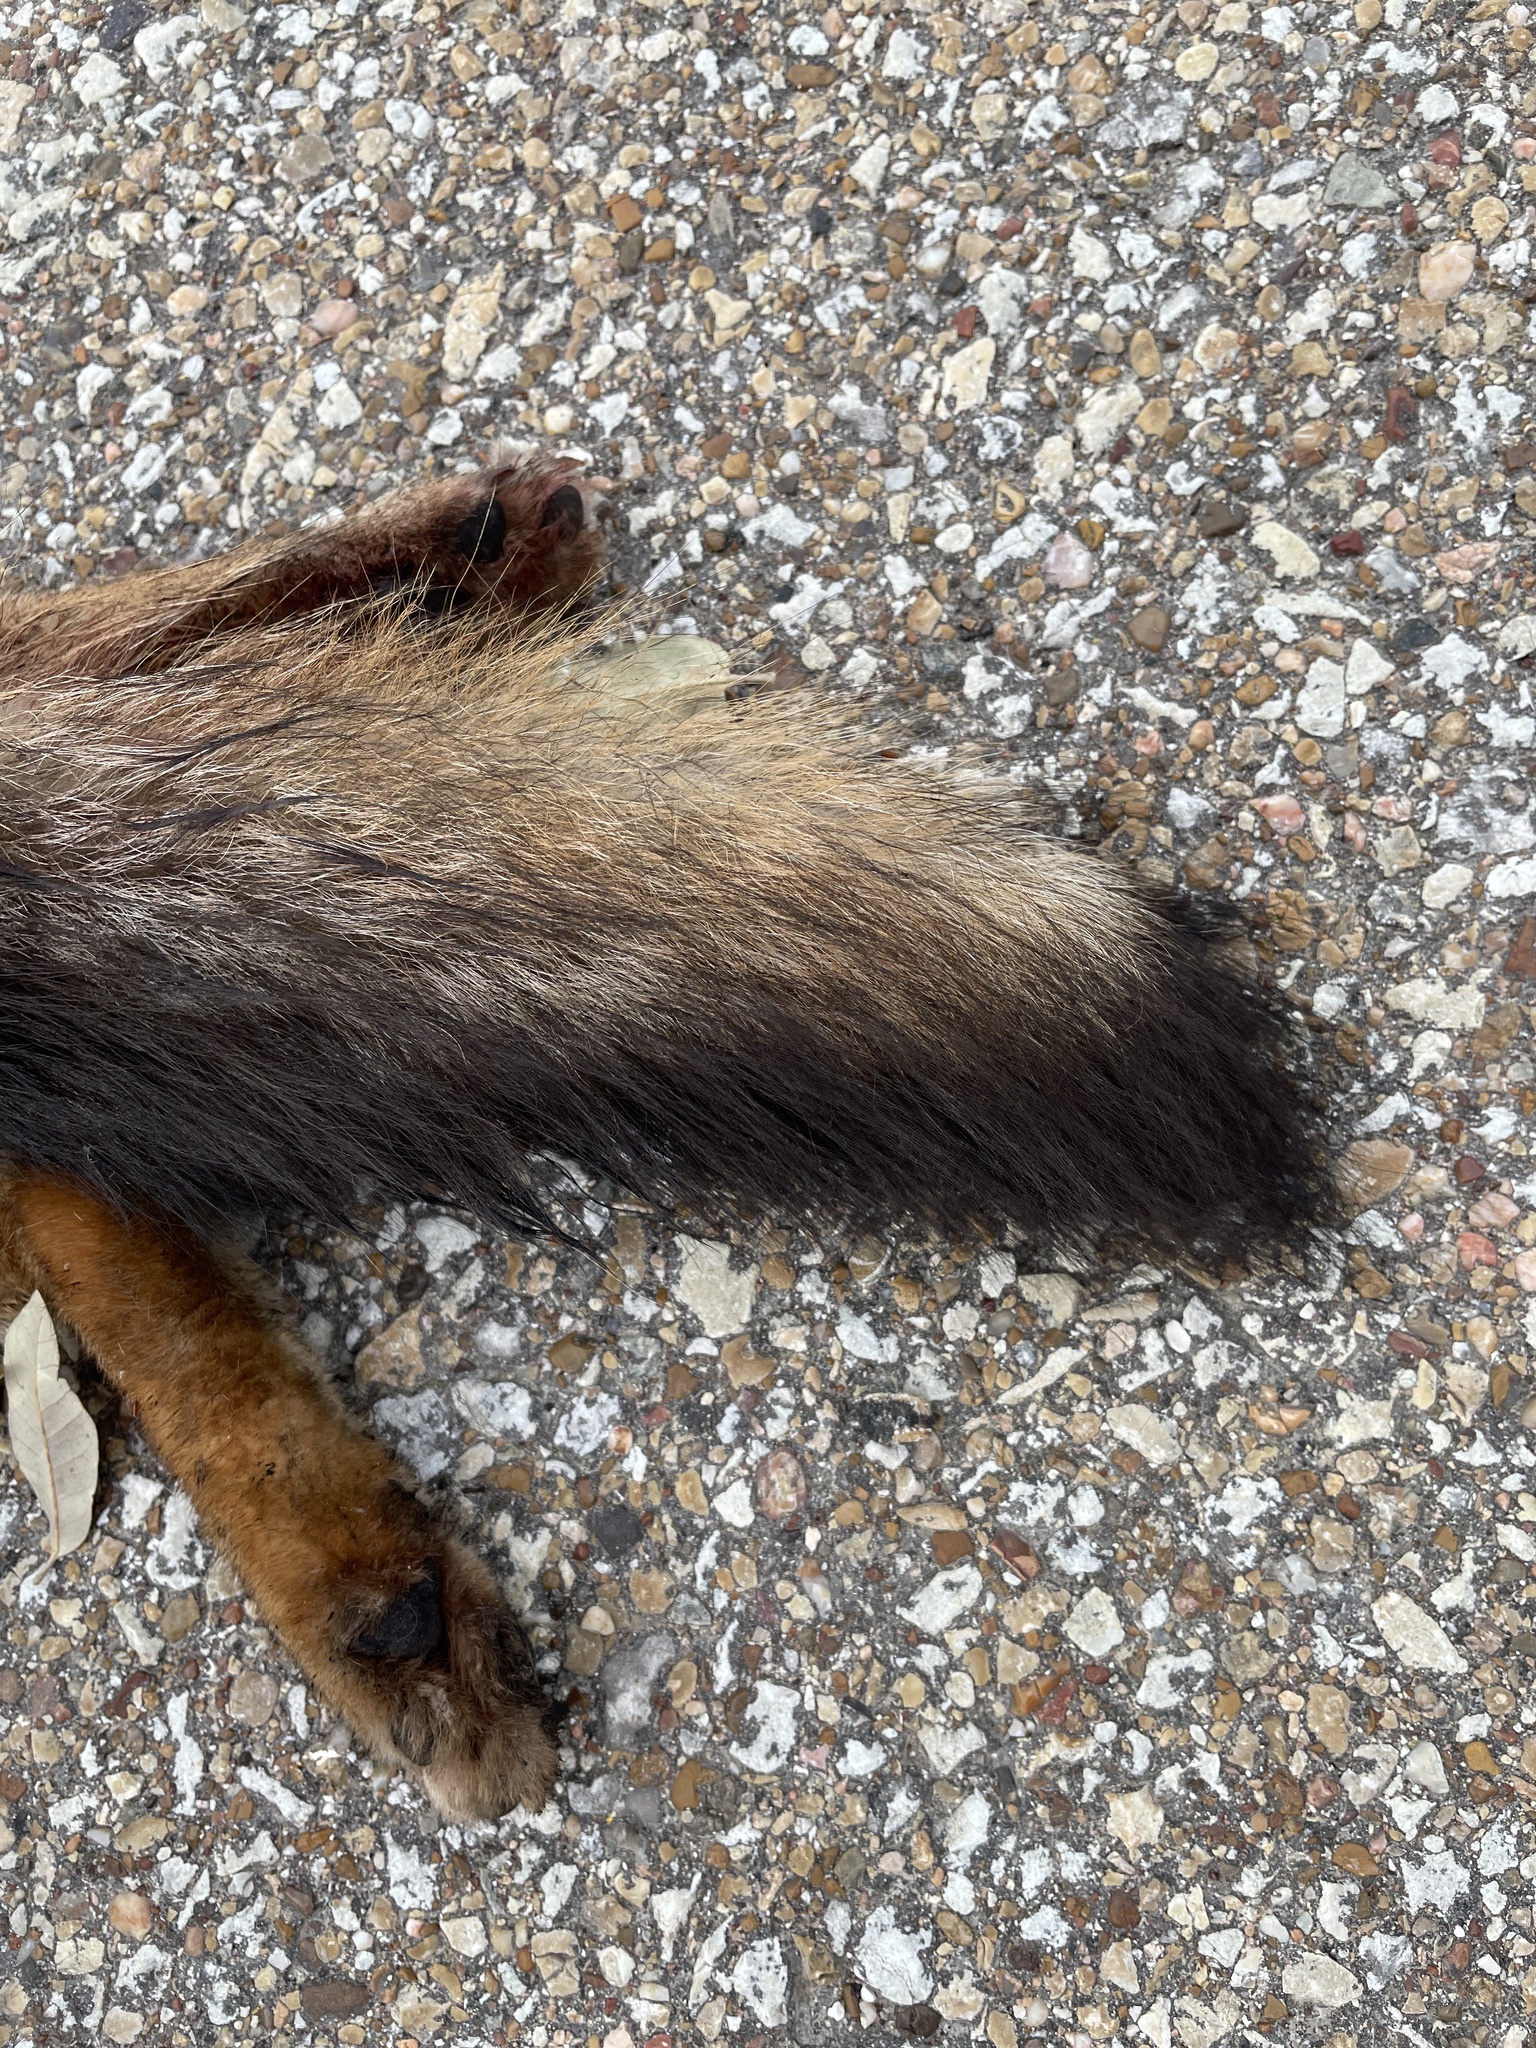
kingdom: Animalia
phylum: Chordata
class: Mammalia
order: Carnivora
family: Canidae
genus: Urocyon
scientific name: Urocyon cinereoargenteus
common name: Gray fox
